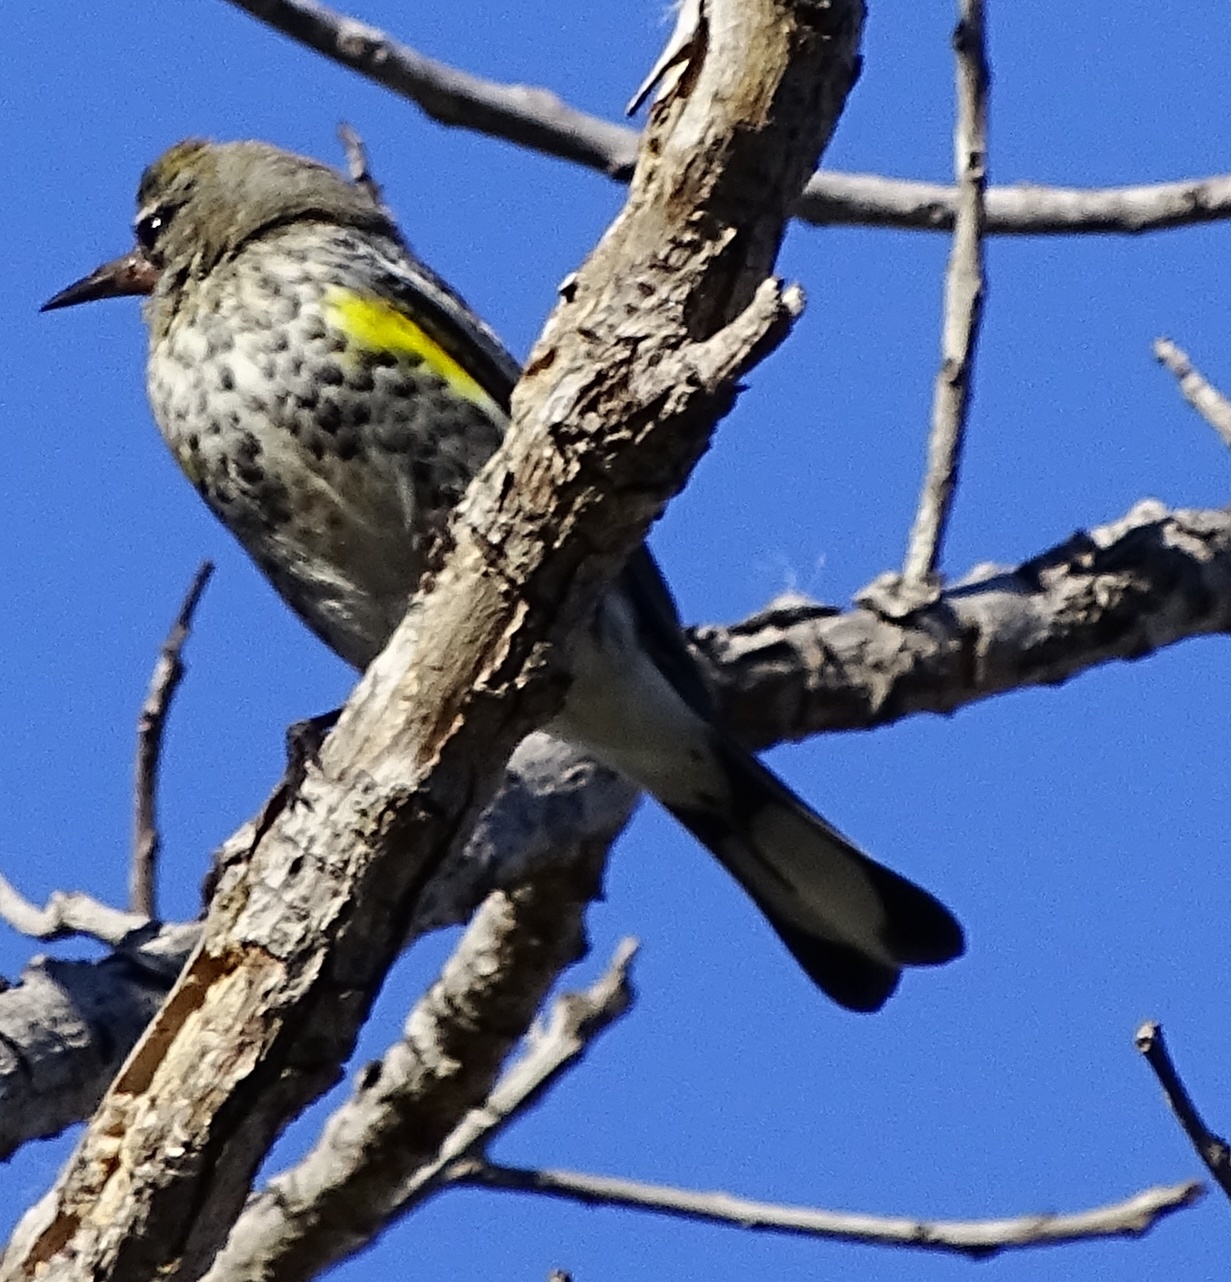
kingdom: Animalia
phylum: Chordata
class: Aves
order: Passeriformes
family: Parulidae
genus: Setophaga
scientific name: Setophaga coronata
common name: Myrtle warbler
